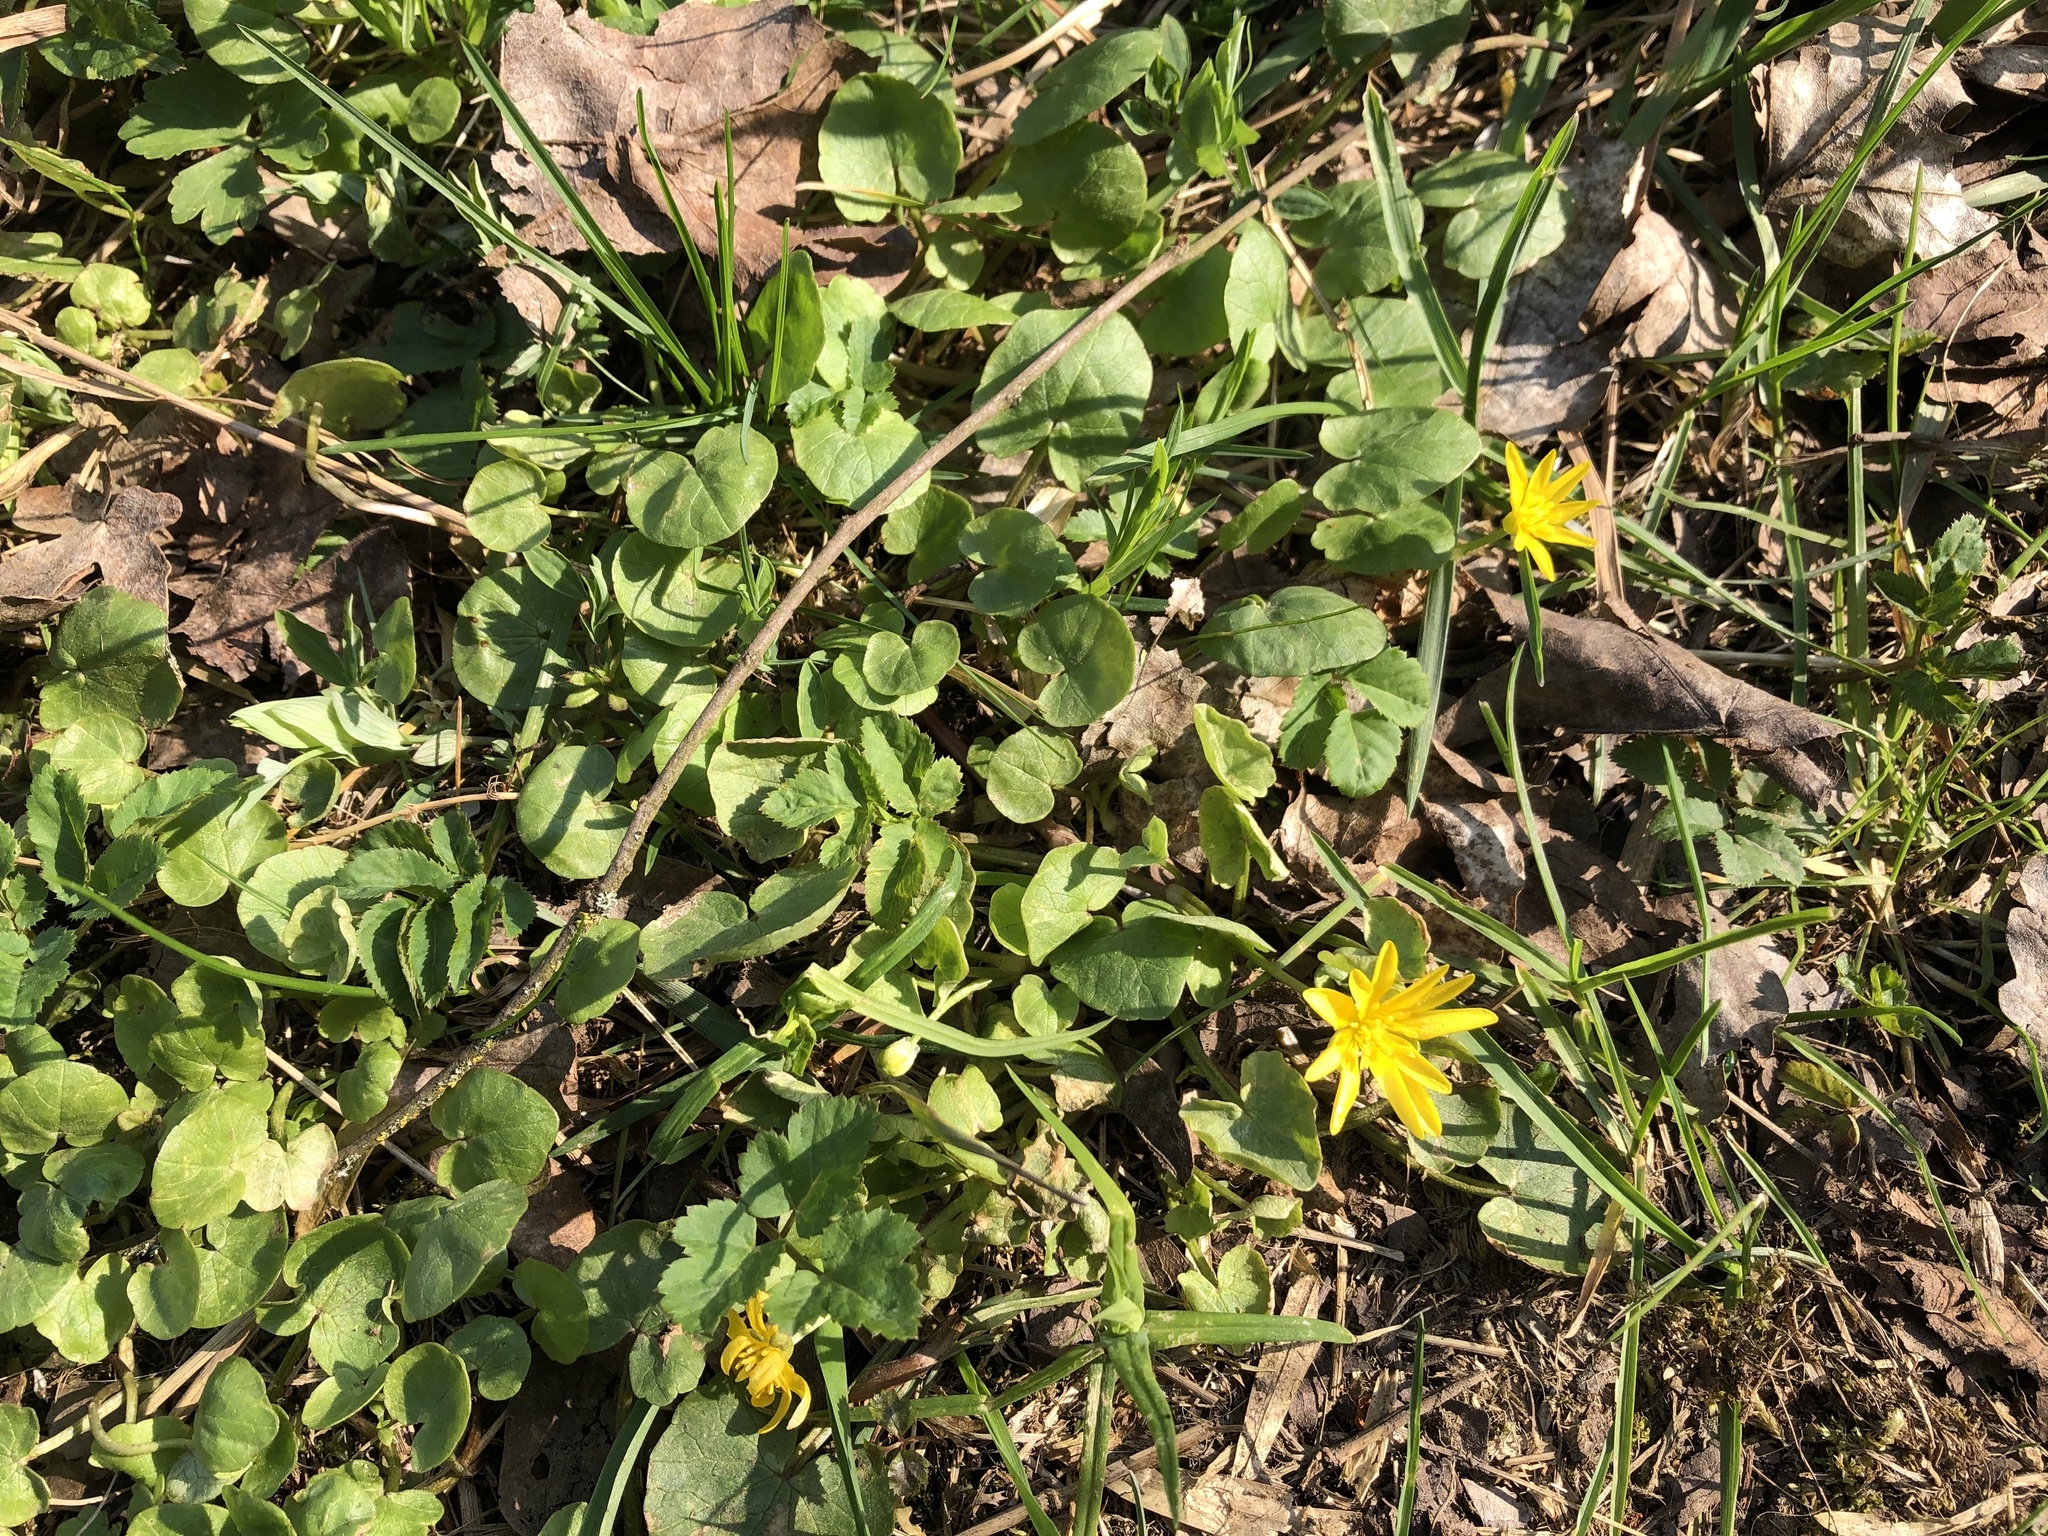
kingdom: Plantae
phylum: Tracheophyta
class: Magnoliopsida
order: Ranunculales
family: Ranunculaceae
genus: Ficaria
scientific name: Ficaria verna
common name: Lesser celandine
